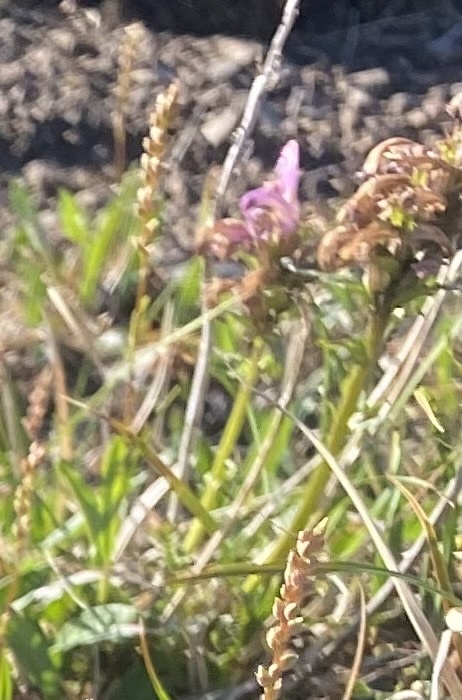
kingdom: Plantae
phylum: Tracheophyta
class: Magnoliopsida
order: Lamiales
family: Orobanchaceae
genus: Pedicularis
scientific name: Pedicularis novaiae-zemliae
